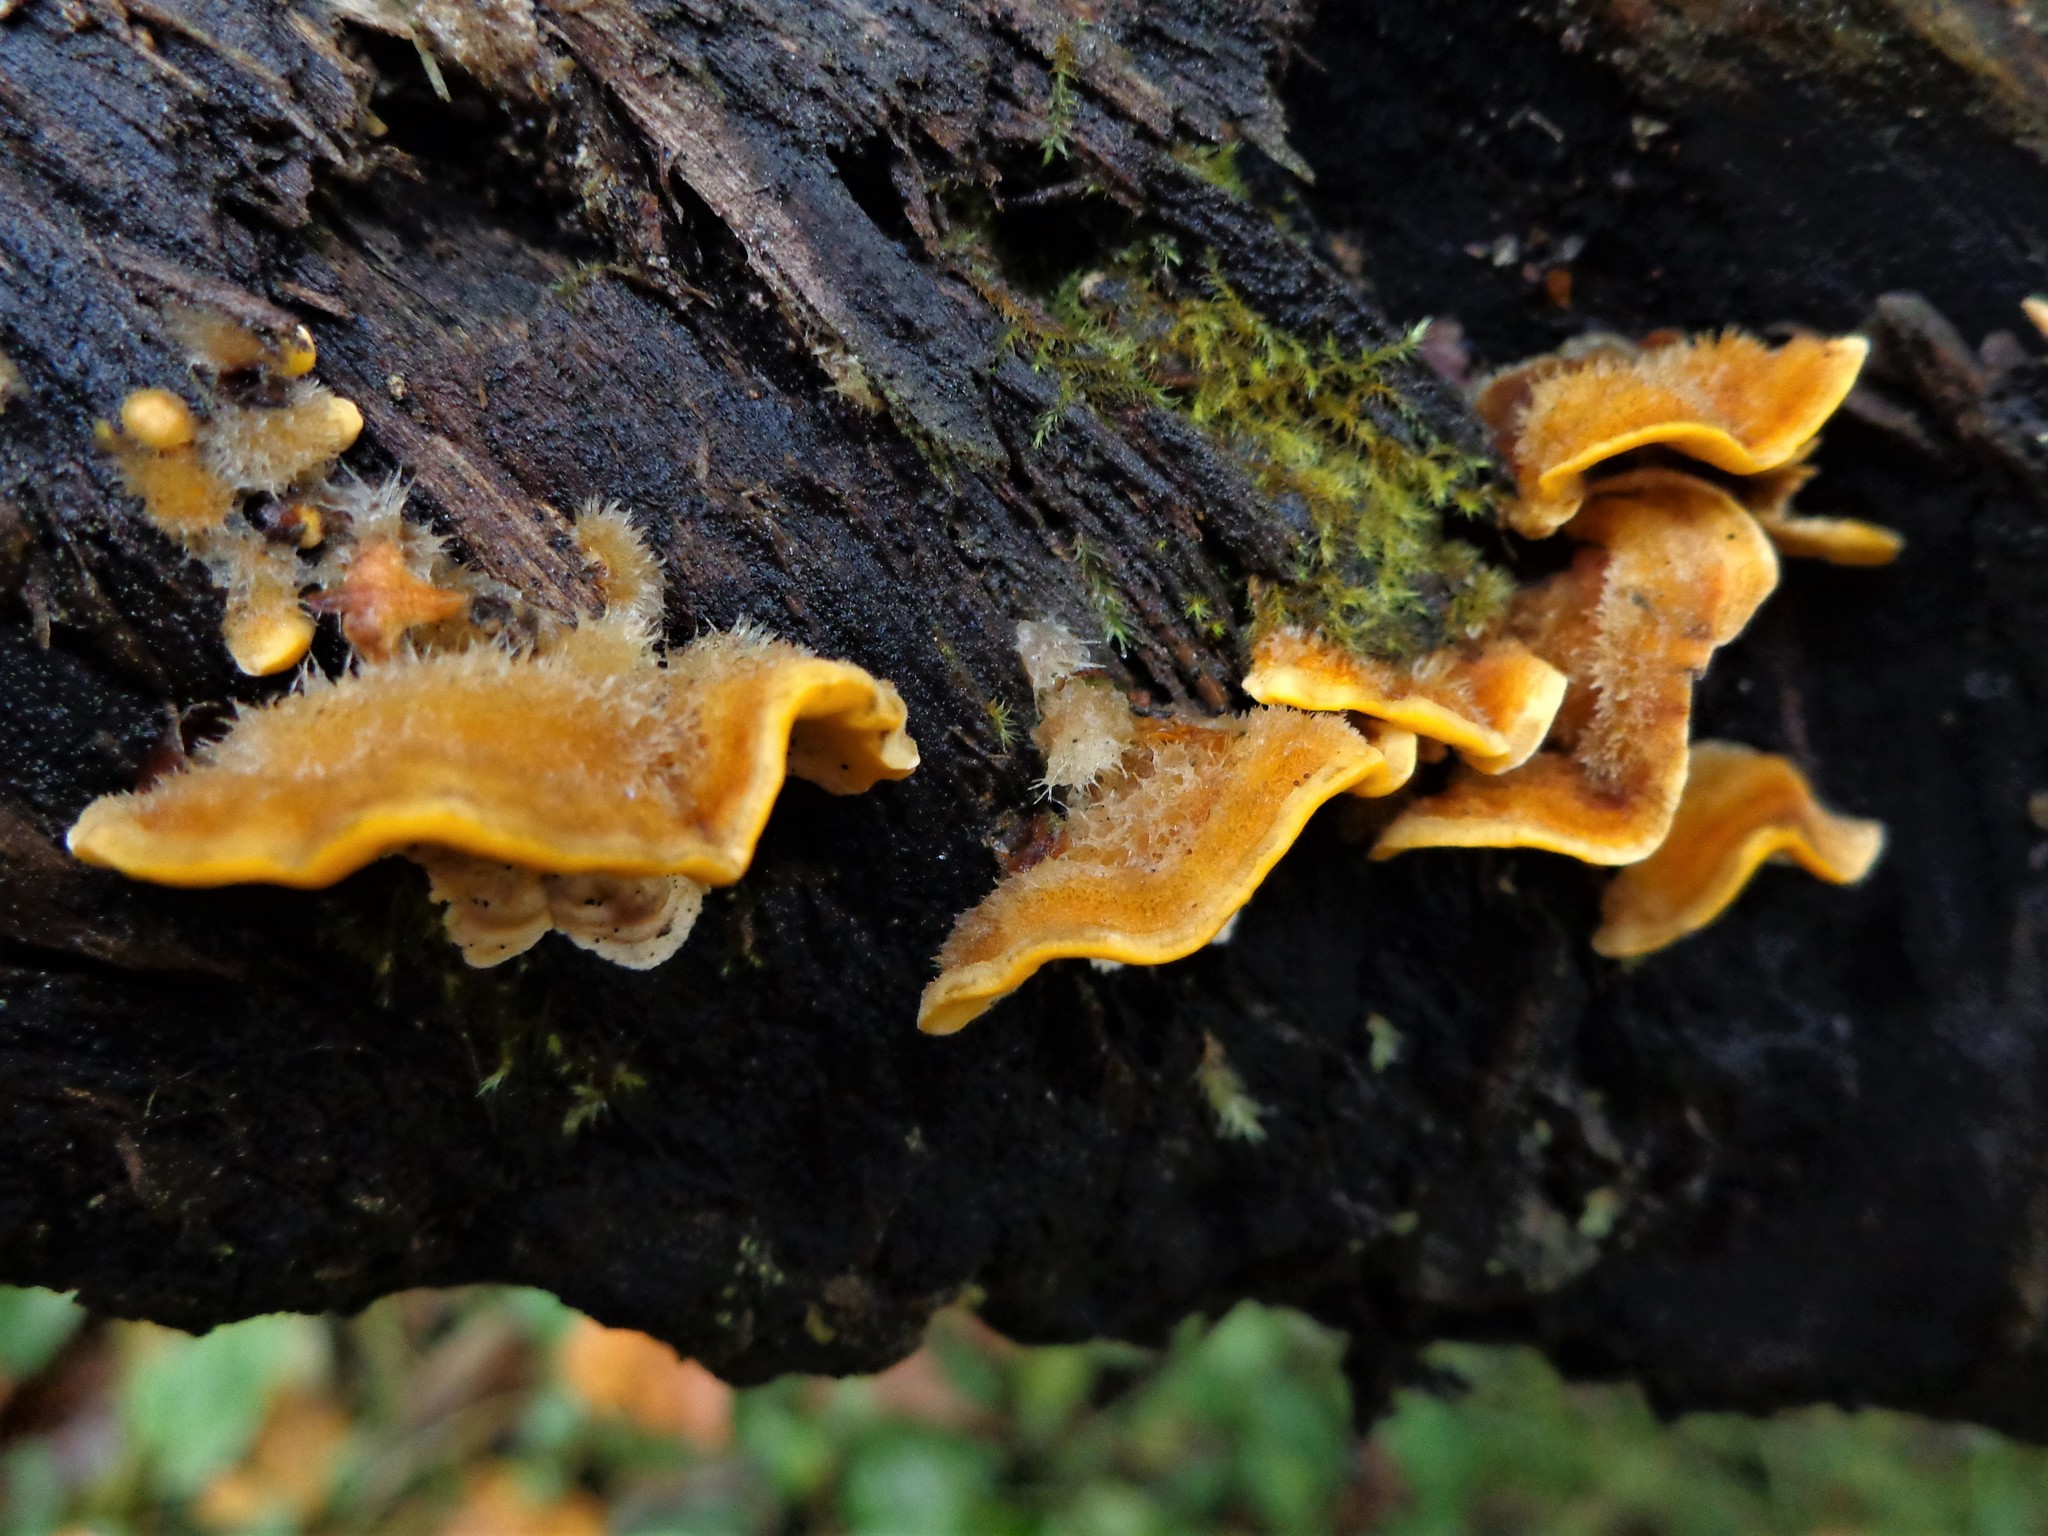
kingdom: Fungi
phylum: Basidiomycota
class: Agaricomycetes
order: Russulales
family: Stereaceae
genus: Stereum
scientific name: Stereum hirsutum
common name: Hairy curtain crust
